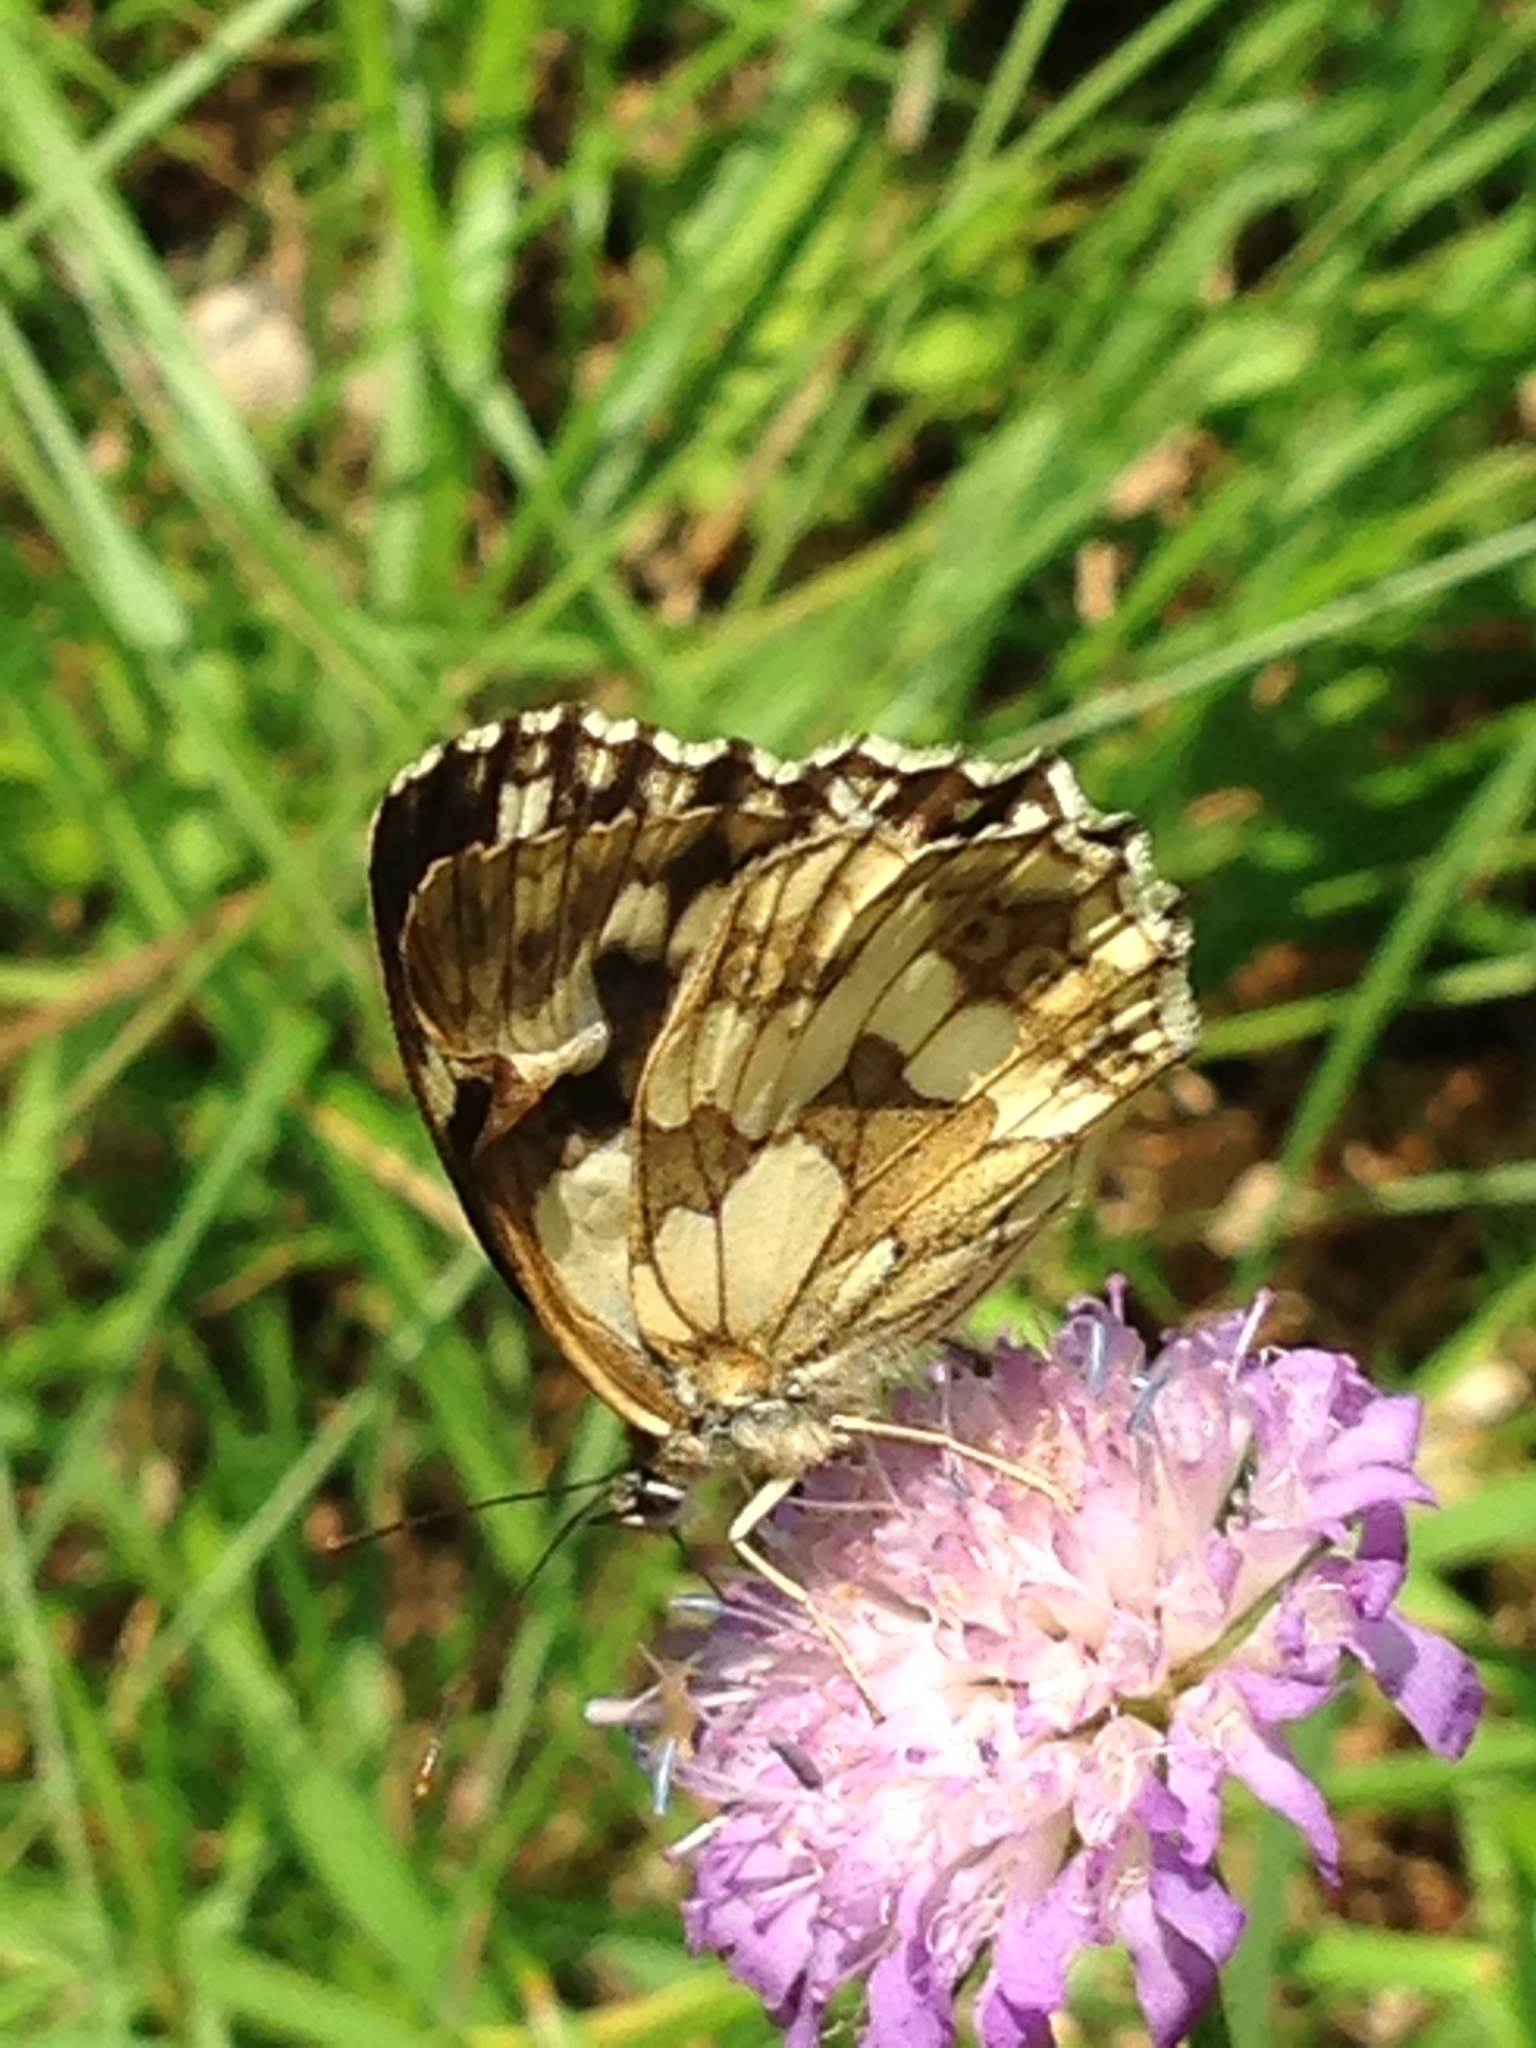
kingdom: Animalia
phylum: Arthropoda
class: Insecta
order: Lepidoptera
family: Nymphalidae
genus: Melanargia
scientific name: Melanargia galathea
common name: Marbled white
